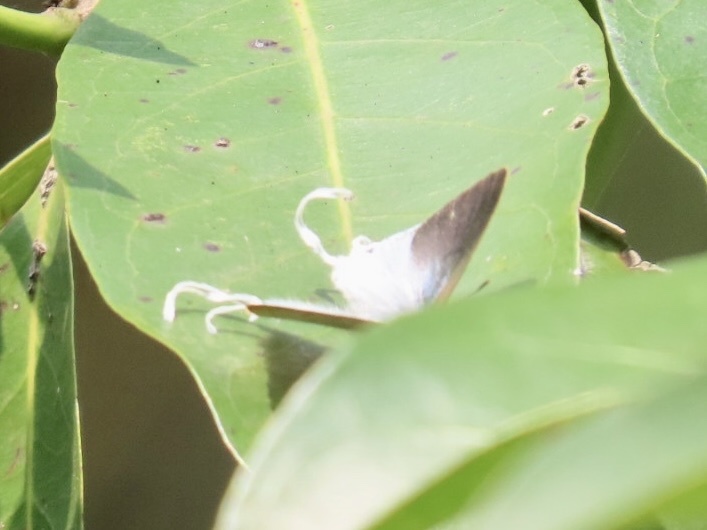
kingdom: Animalia
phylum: Arthropoda
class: Insecta
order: Lepidoptera
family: Lycaenidae
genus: Zeltus
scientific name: Zeltus amasa
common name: Fluffy tit
